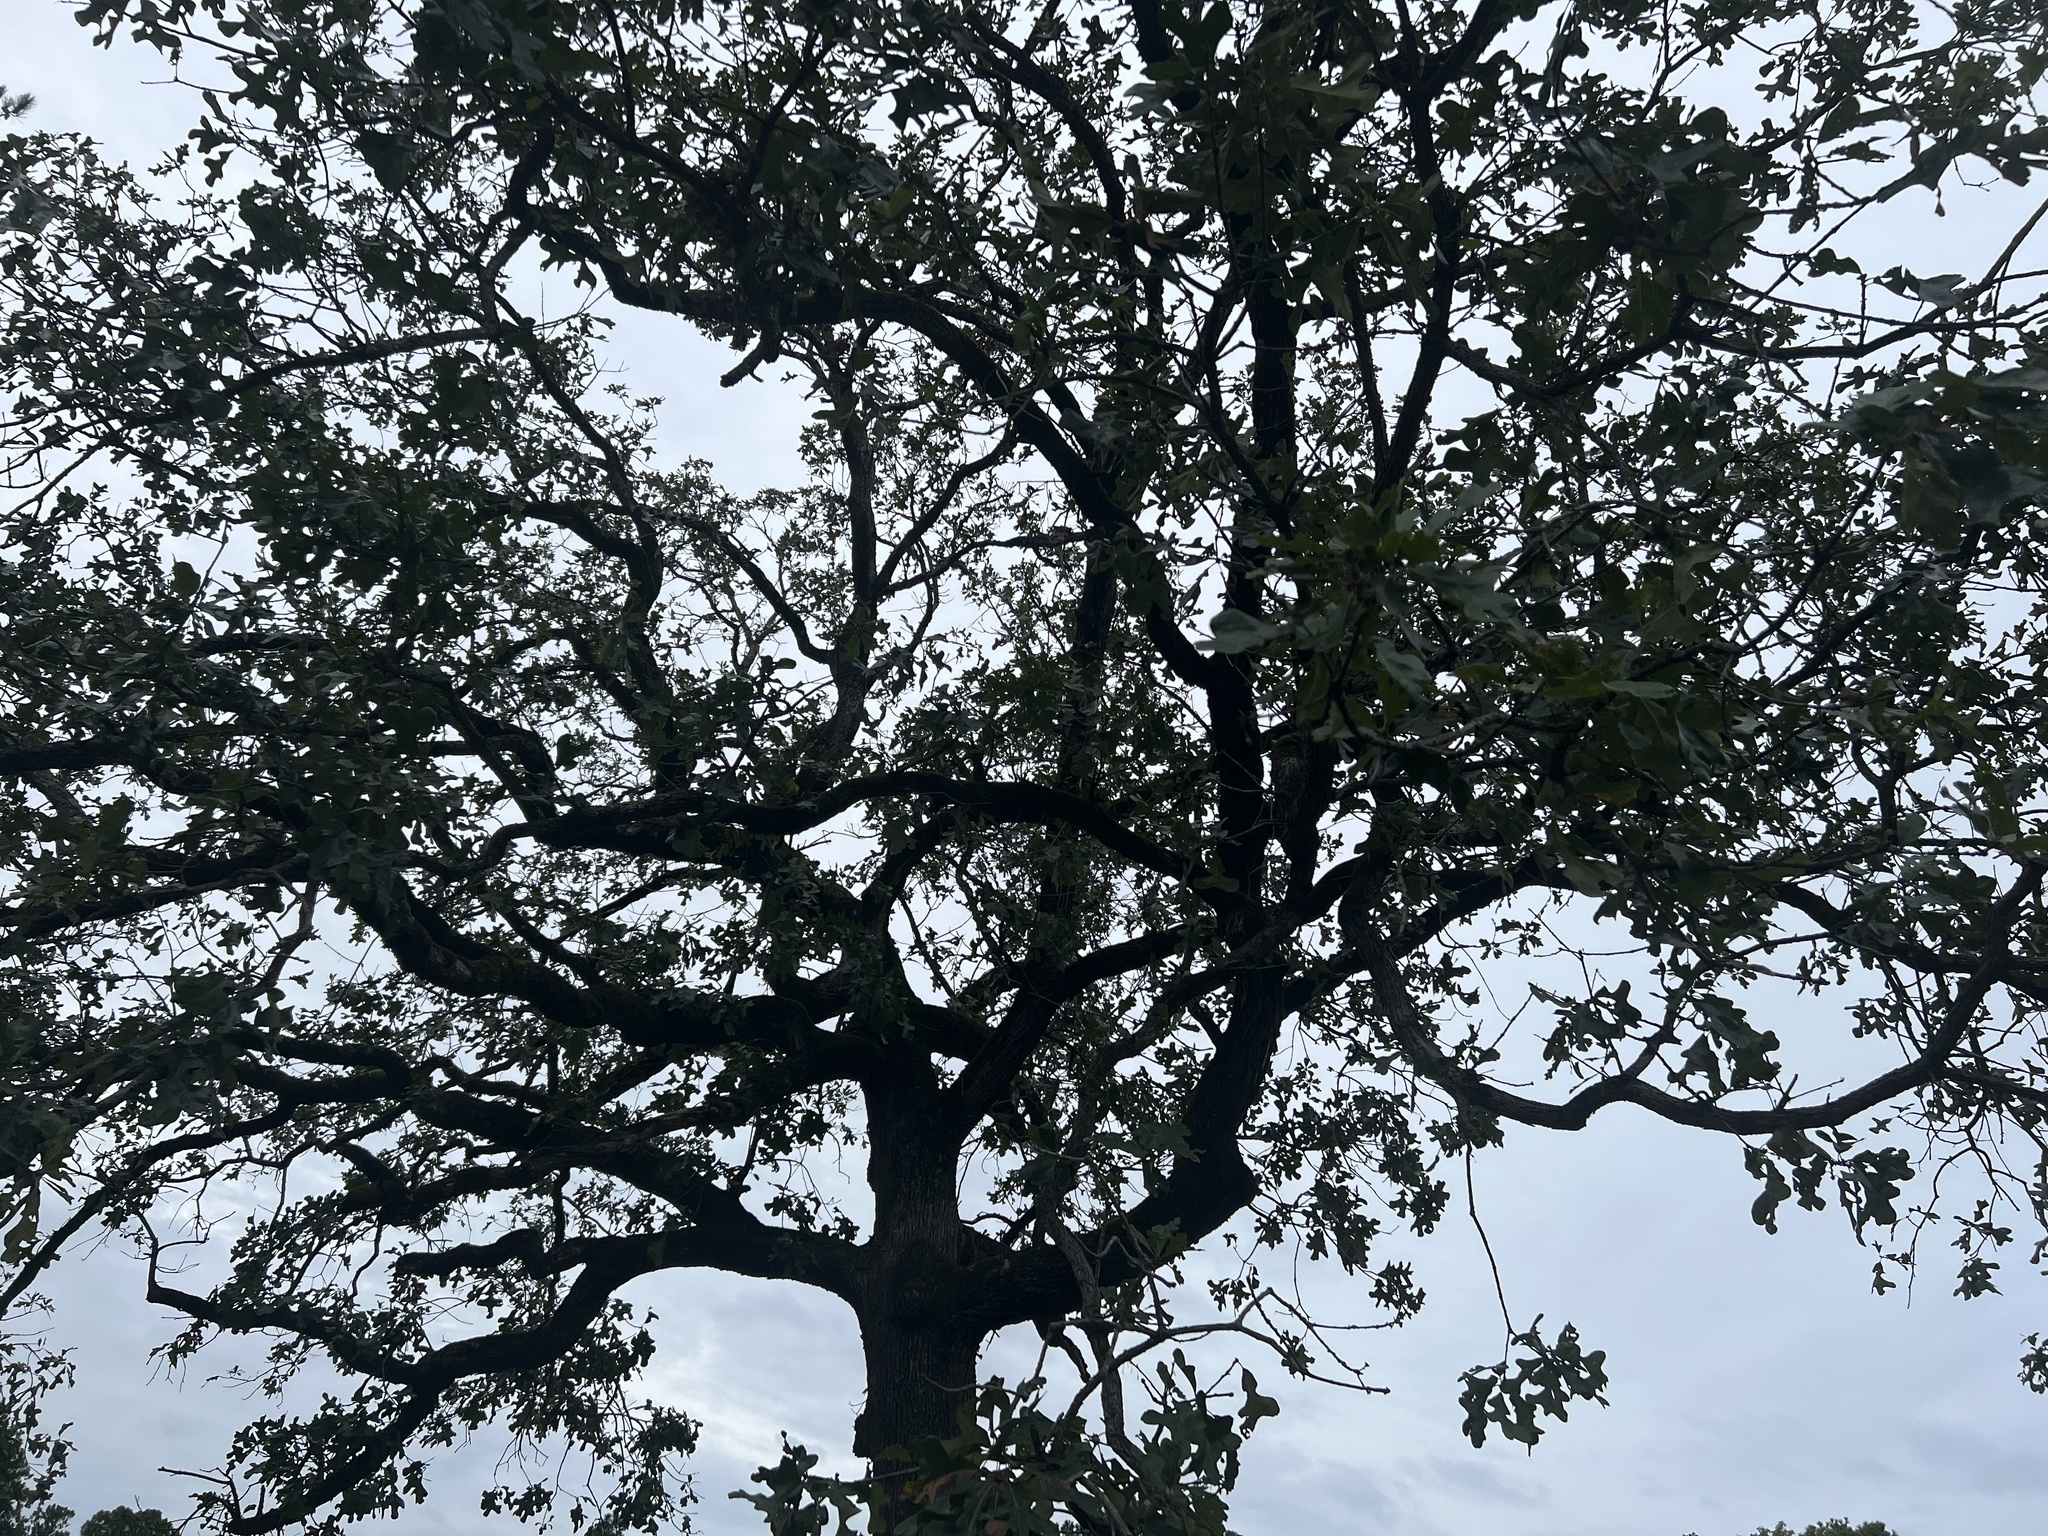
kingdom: Plantae
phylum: Tracheophyta
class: Magnoliopsida
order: Fagales
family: Fagaceae
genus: Quercus
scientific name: Quercus stellata
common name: Post oak
